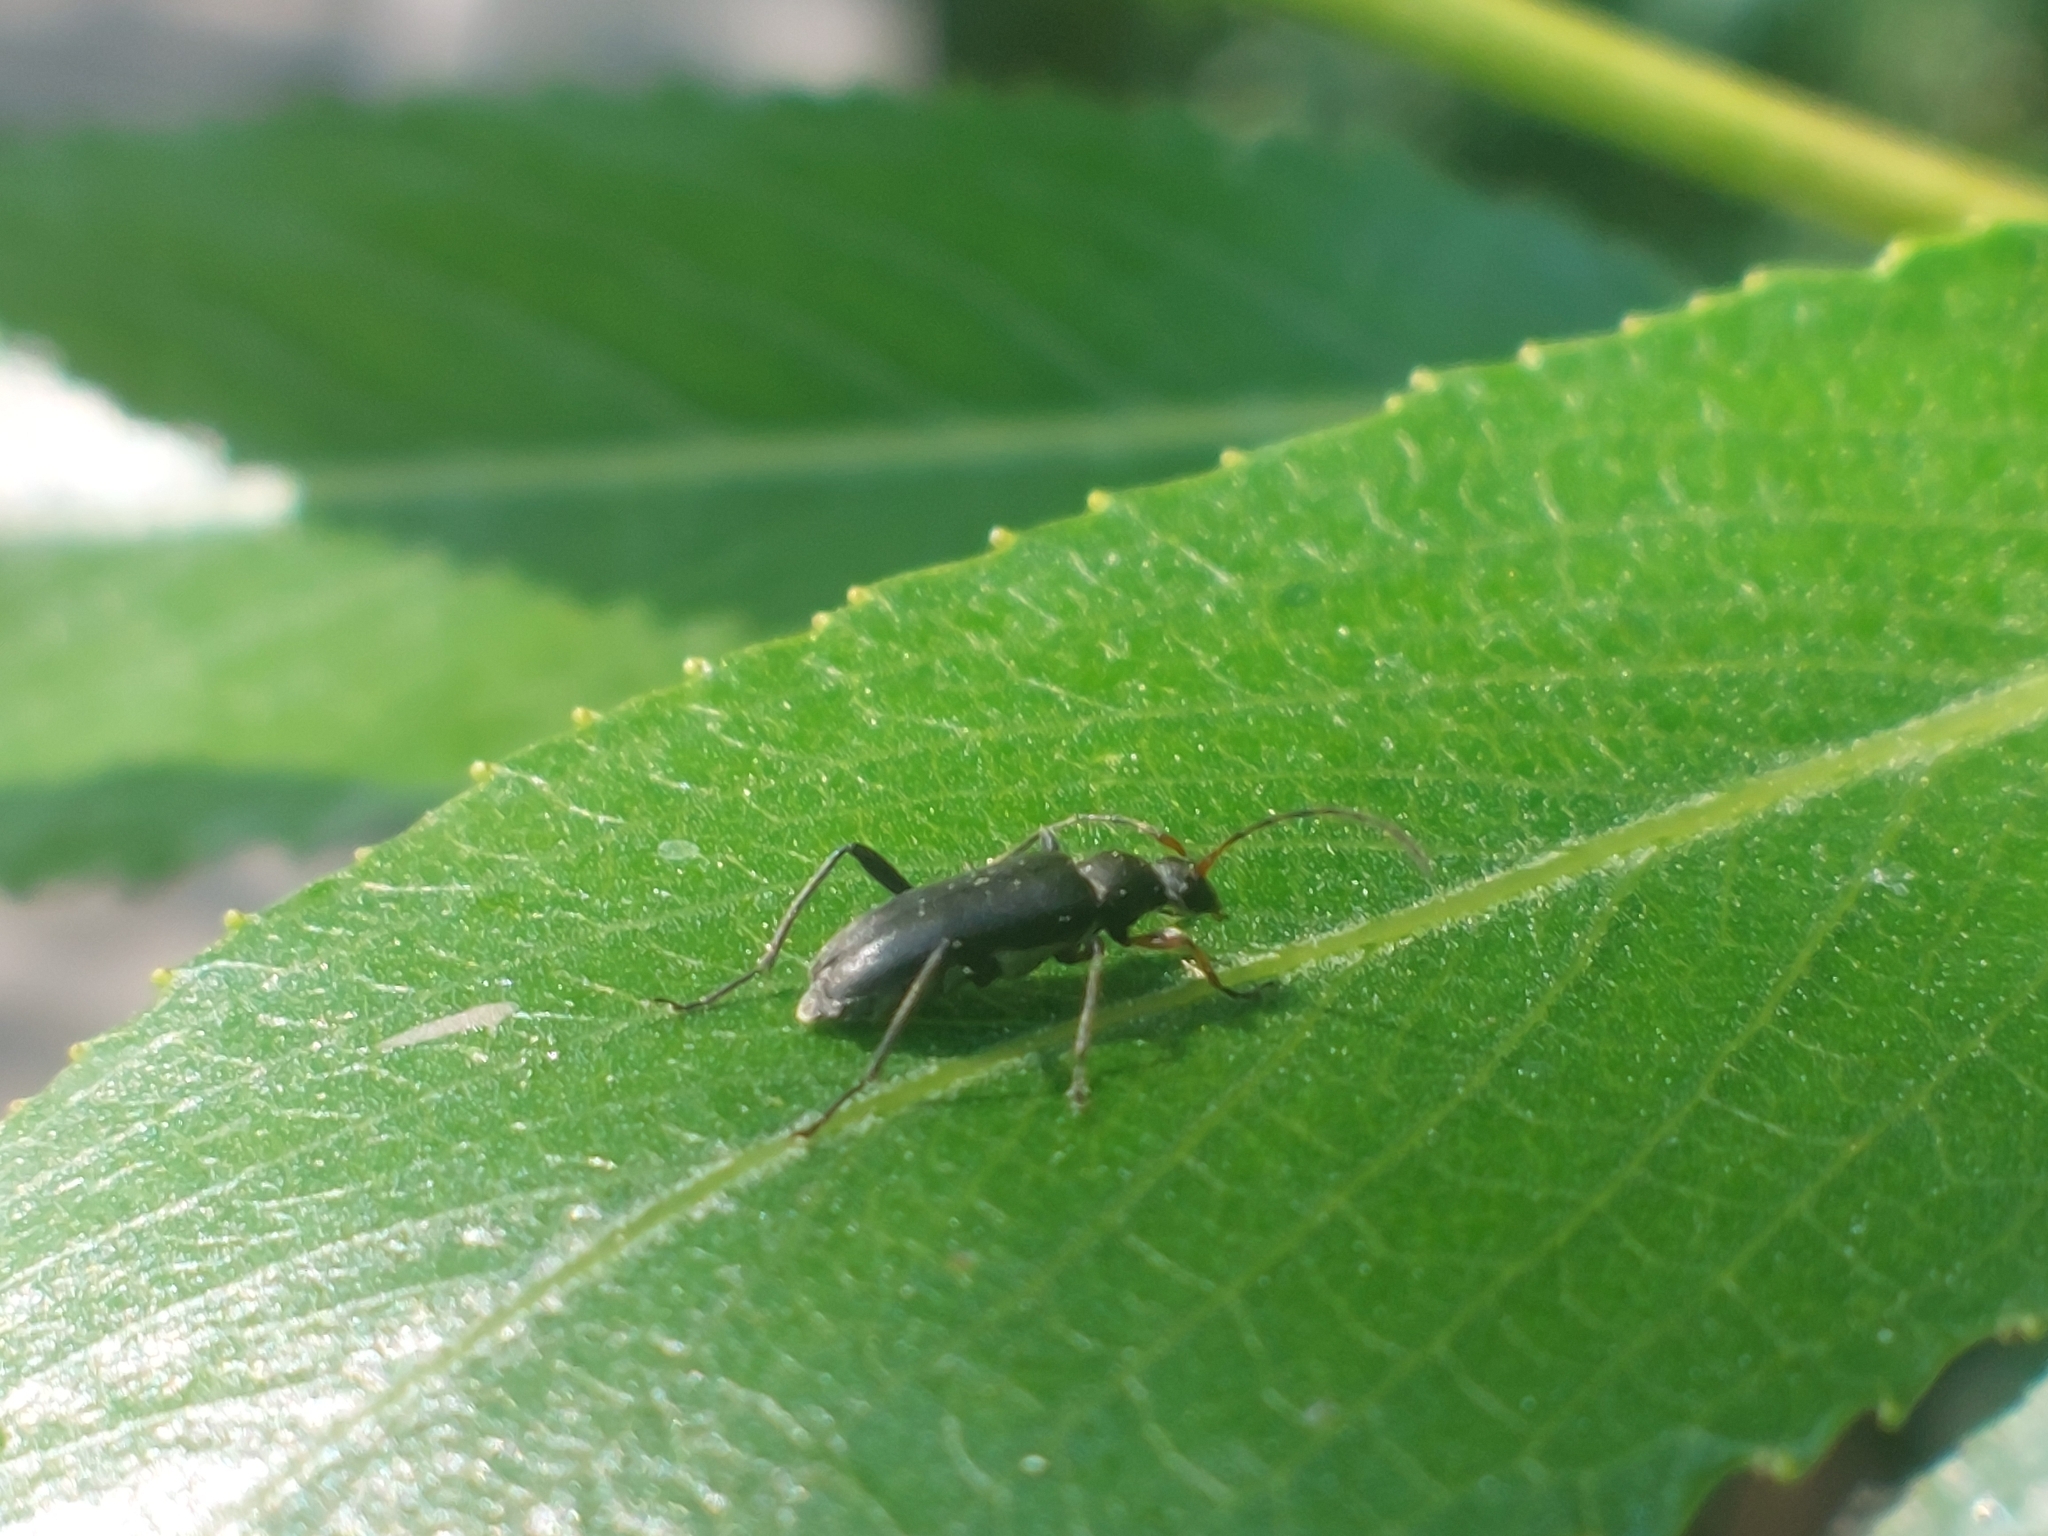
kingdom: Animalia
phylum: Arthropoda
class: Insecta
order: Coleoptera
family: Cerambycidae
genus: Grammoptera
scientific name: Grammoptera ruficornis
